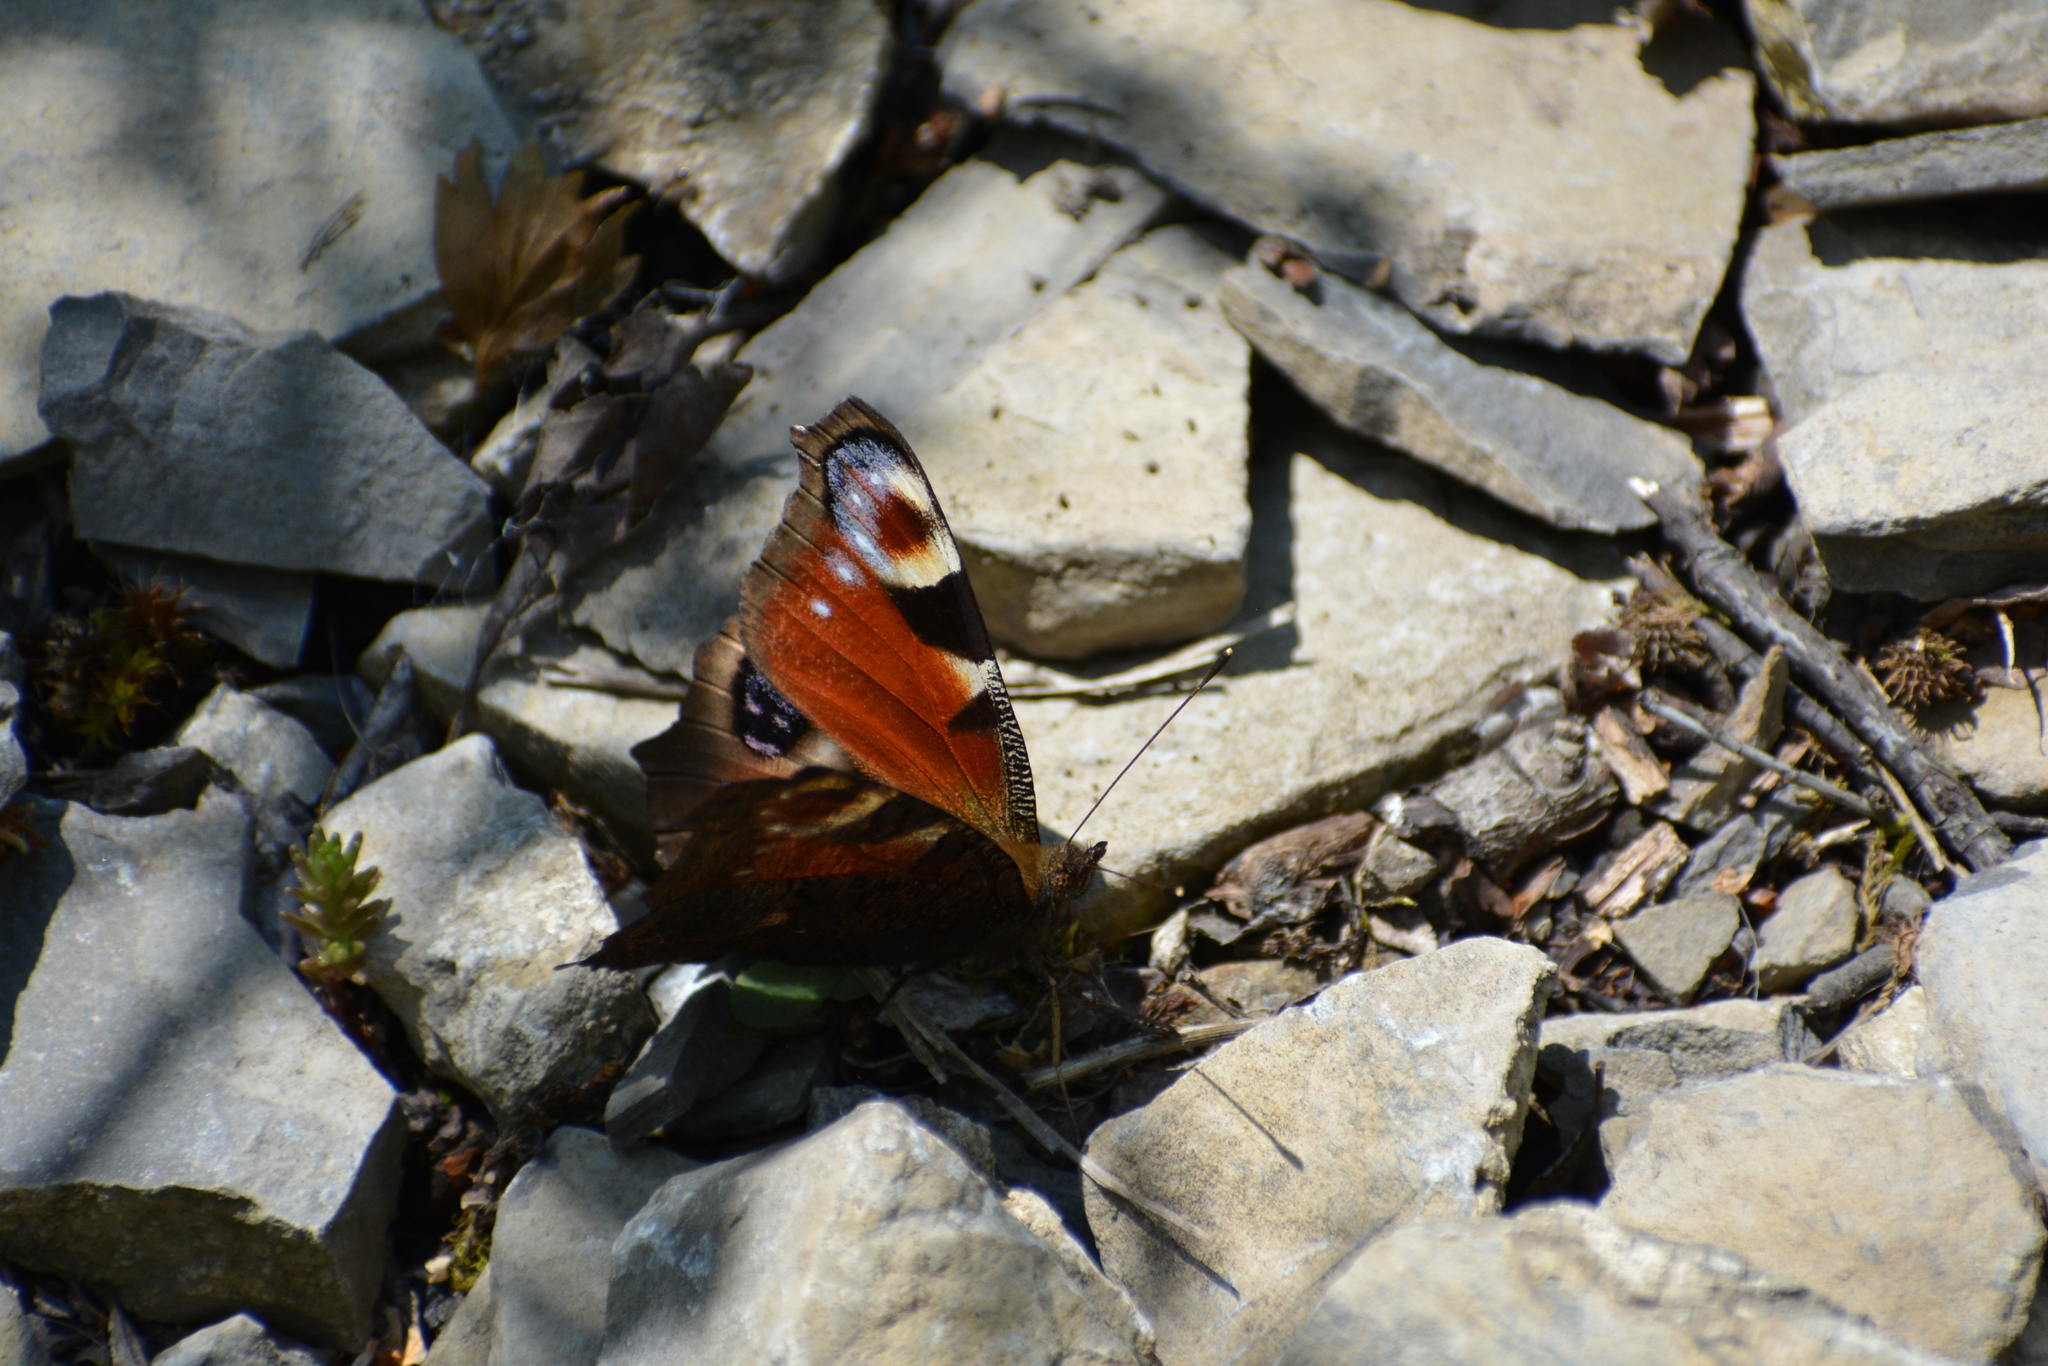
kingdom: Animalia
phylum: Arthropoda
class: Insecta
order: Lepidoptera
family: Nymphalidae
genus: Aglais
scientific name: Aglais io
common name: Peacock
